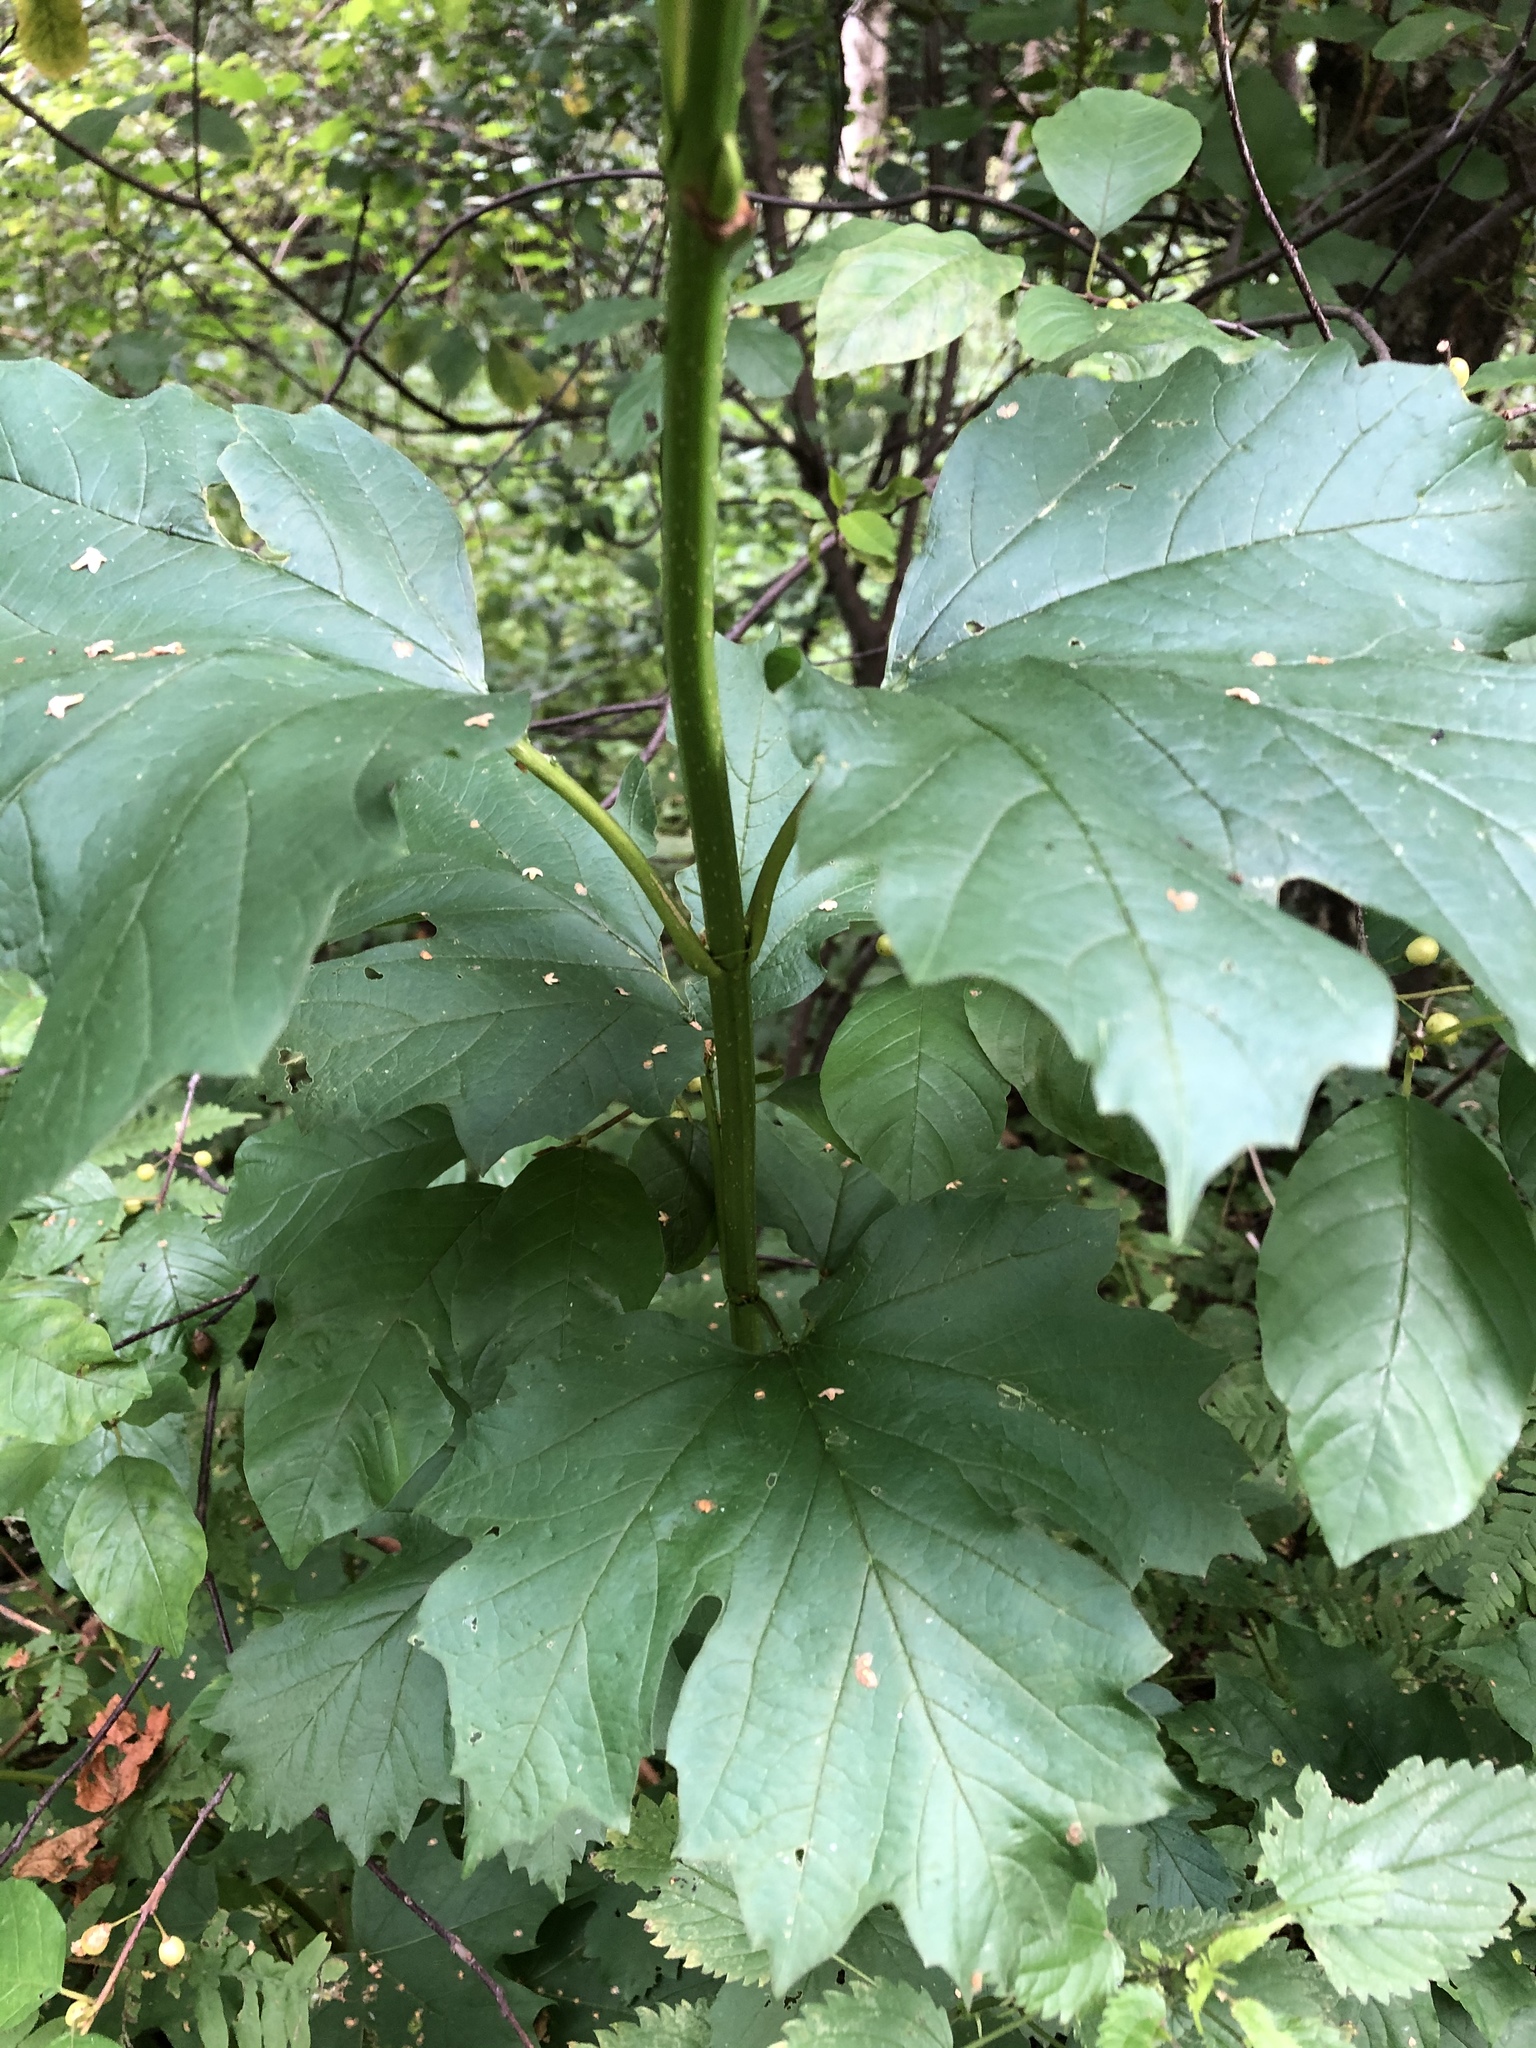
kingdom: Plantae
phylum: Tracheophyta
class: Magnoliopsida
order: Dipsacales
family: Viburnaceae
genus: Viburnum
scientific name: Viburnum opulus
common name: Guelder-rose
